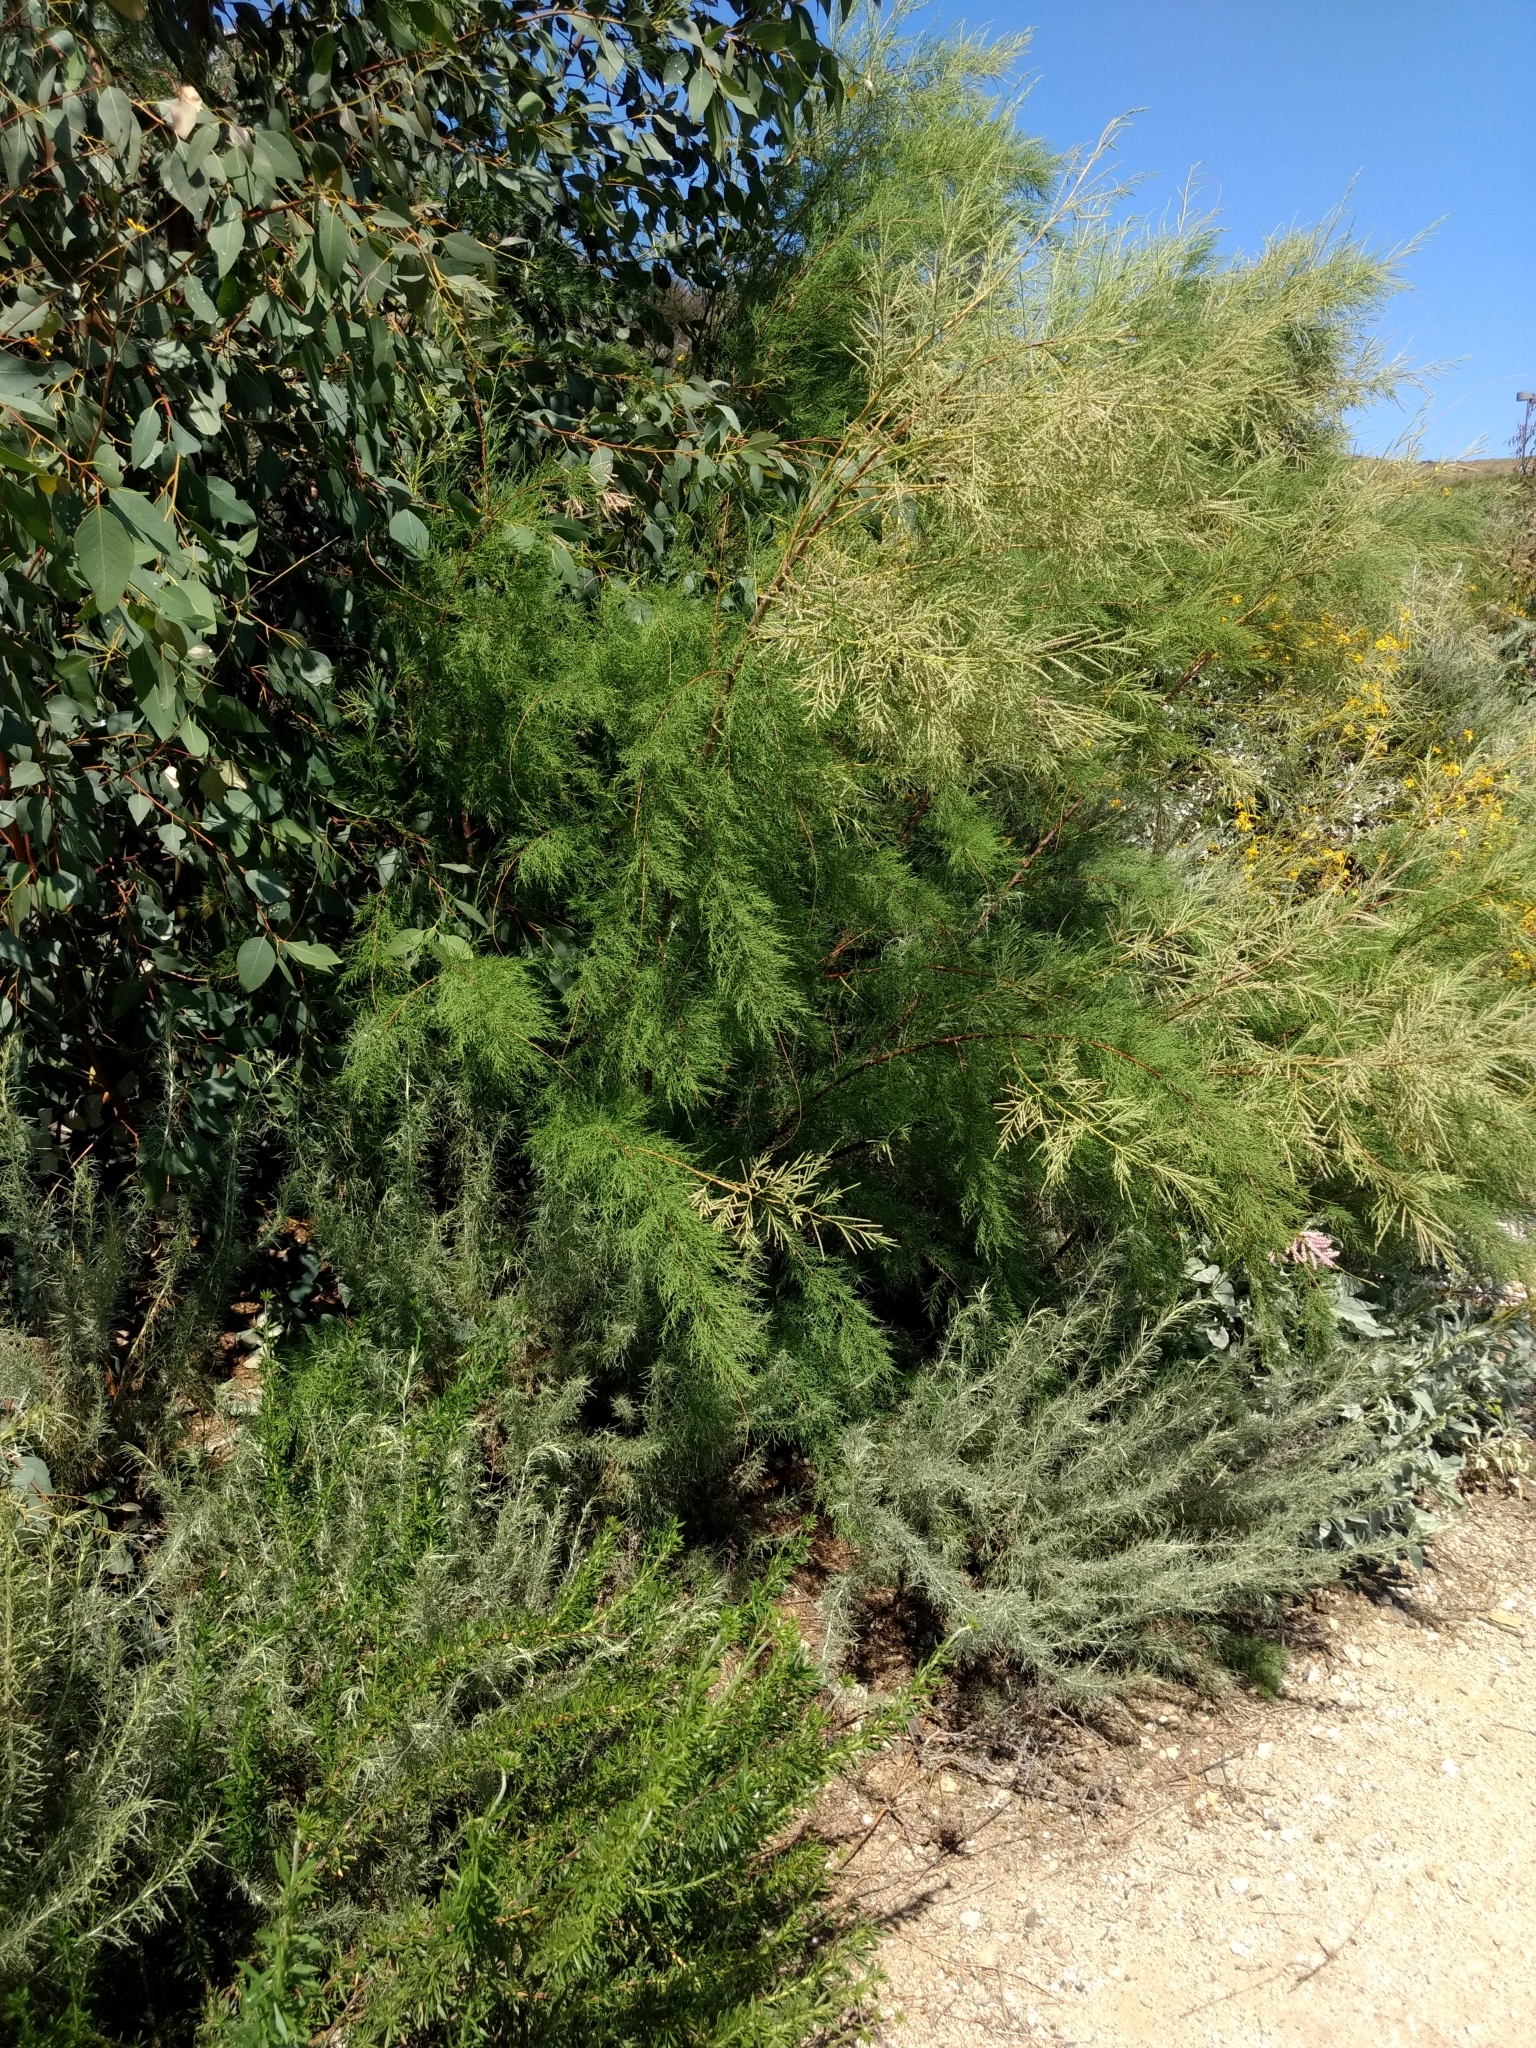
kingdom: Plantae
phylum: Tracheophyta
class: Magnoliopsida
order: Caryophyllales
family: Tamaricaceae
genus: Tamarix
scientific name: Tamarix
